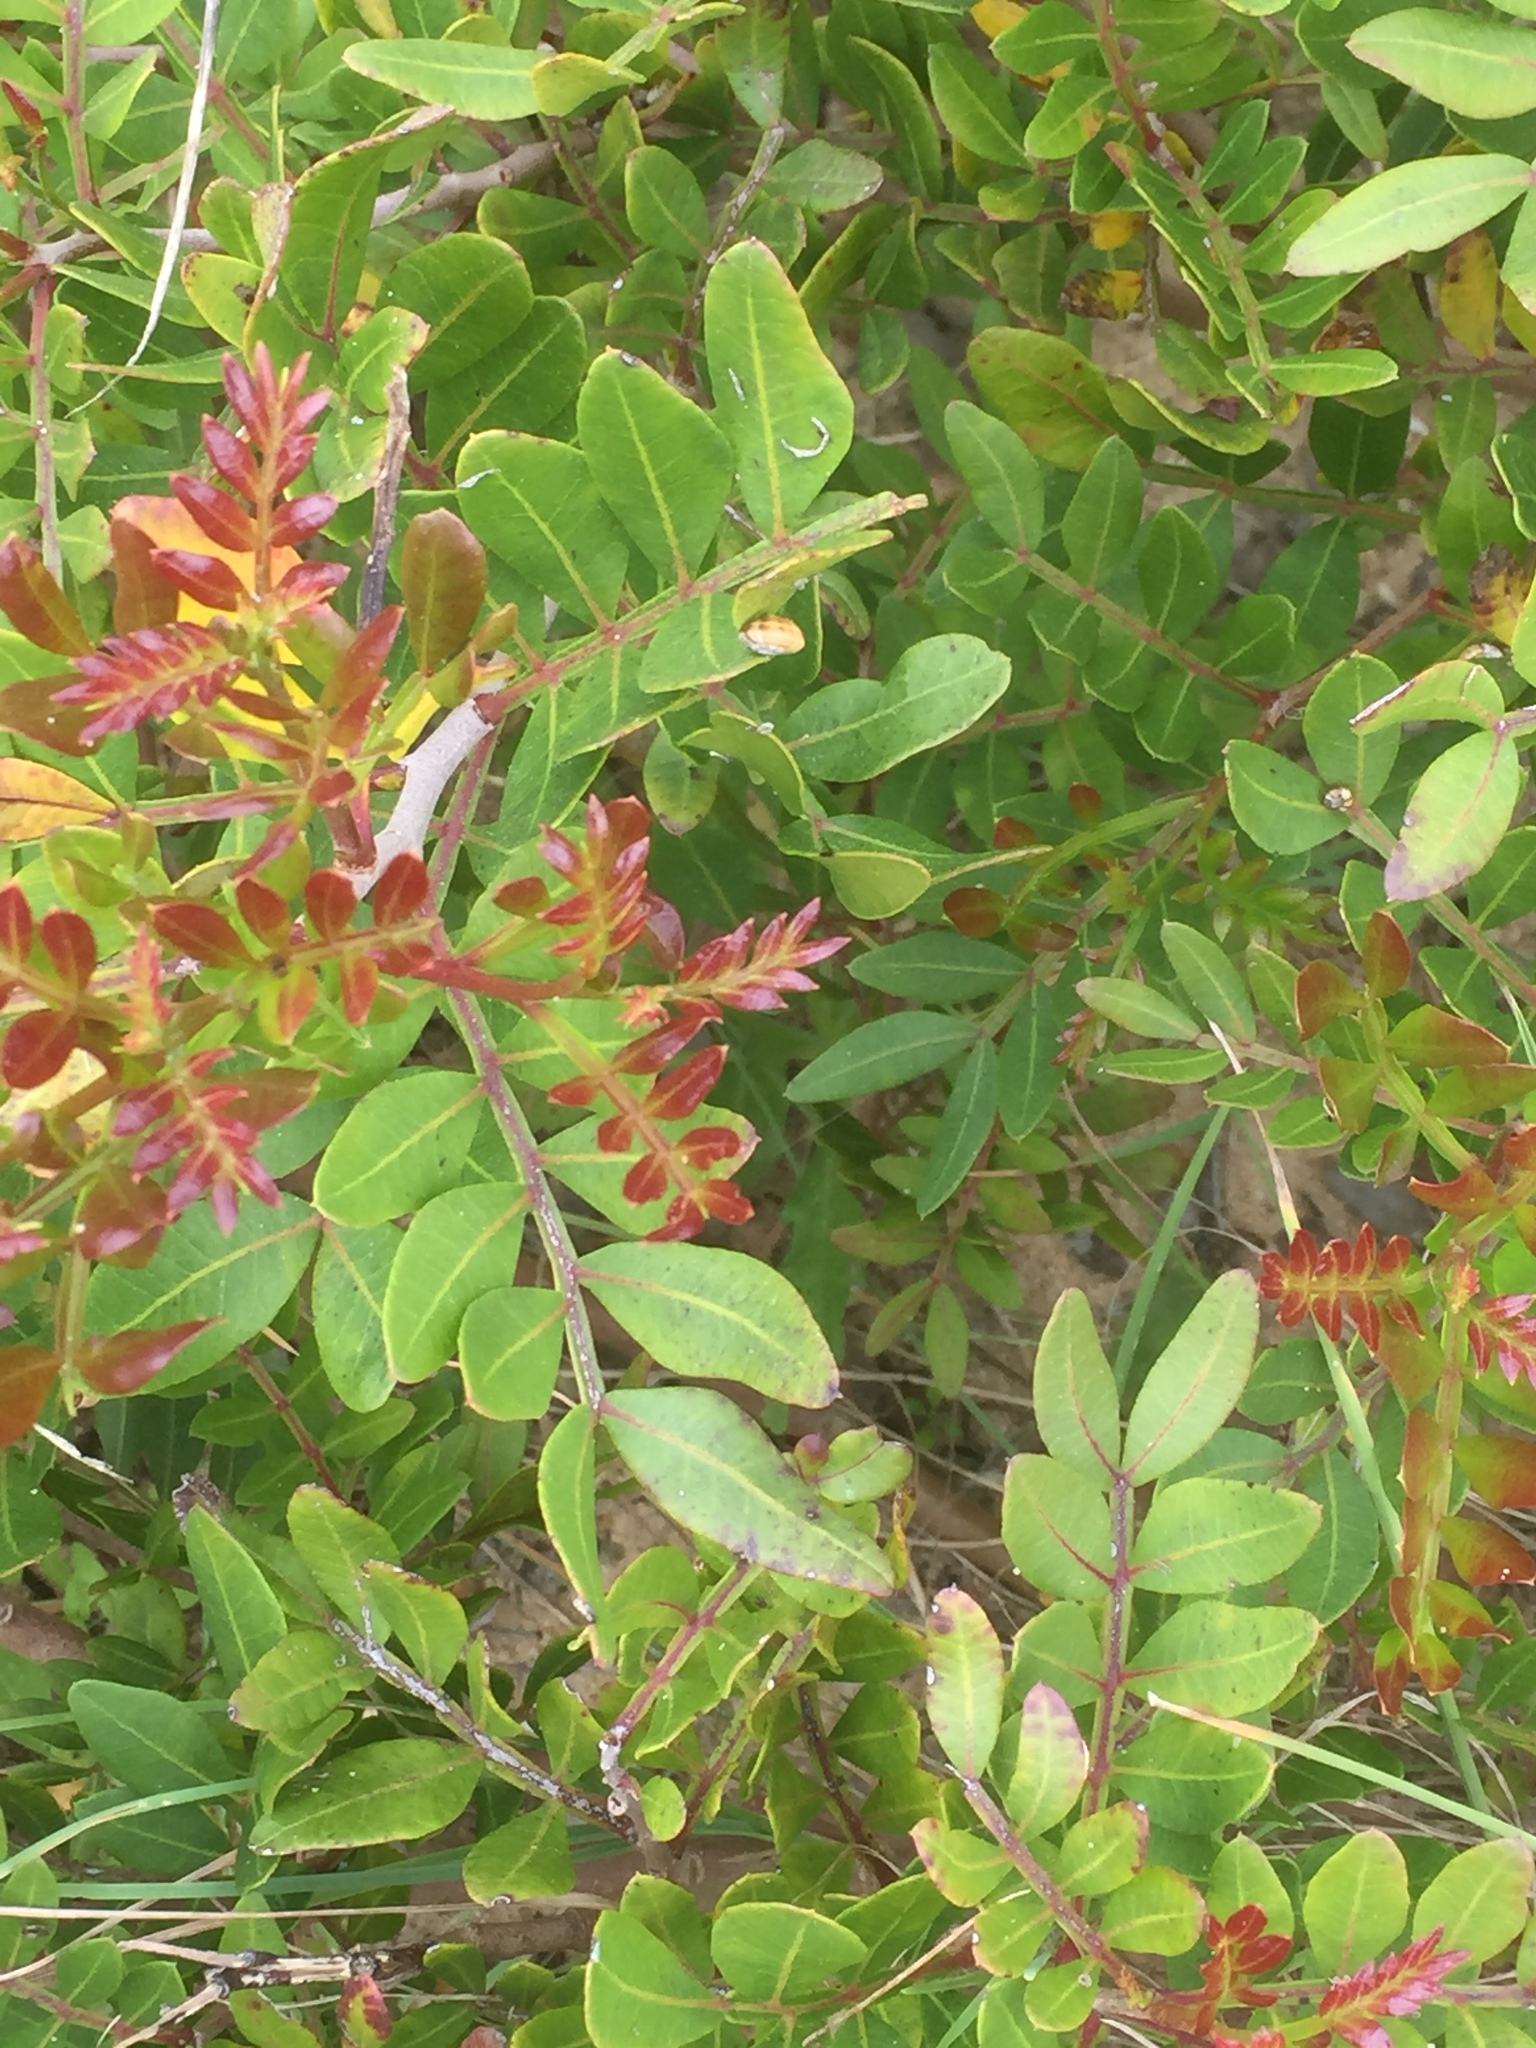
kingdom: Plantae
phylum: Tracheophyta
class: Magnoliopsida
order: Sapindales
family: Anacardiaceae
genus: Pistacia
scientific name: Pistacia lentiscus
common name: Lentisk
